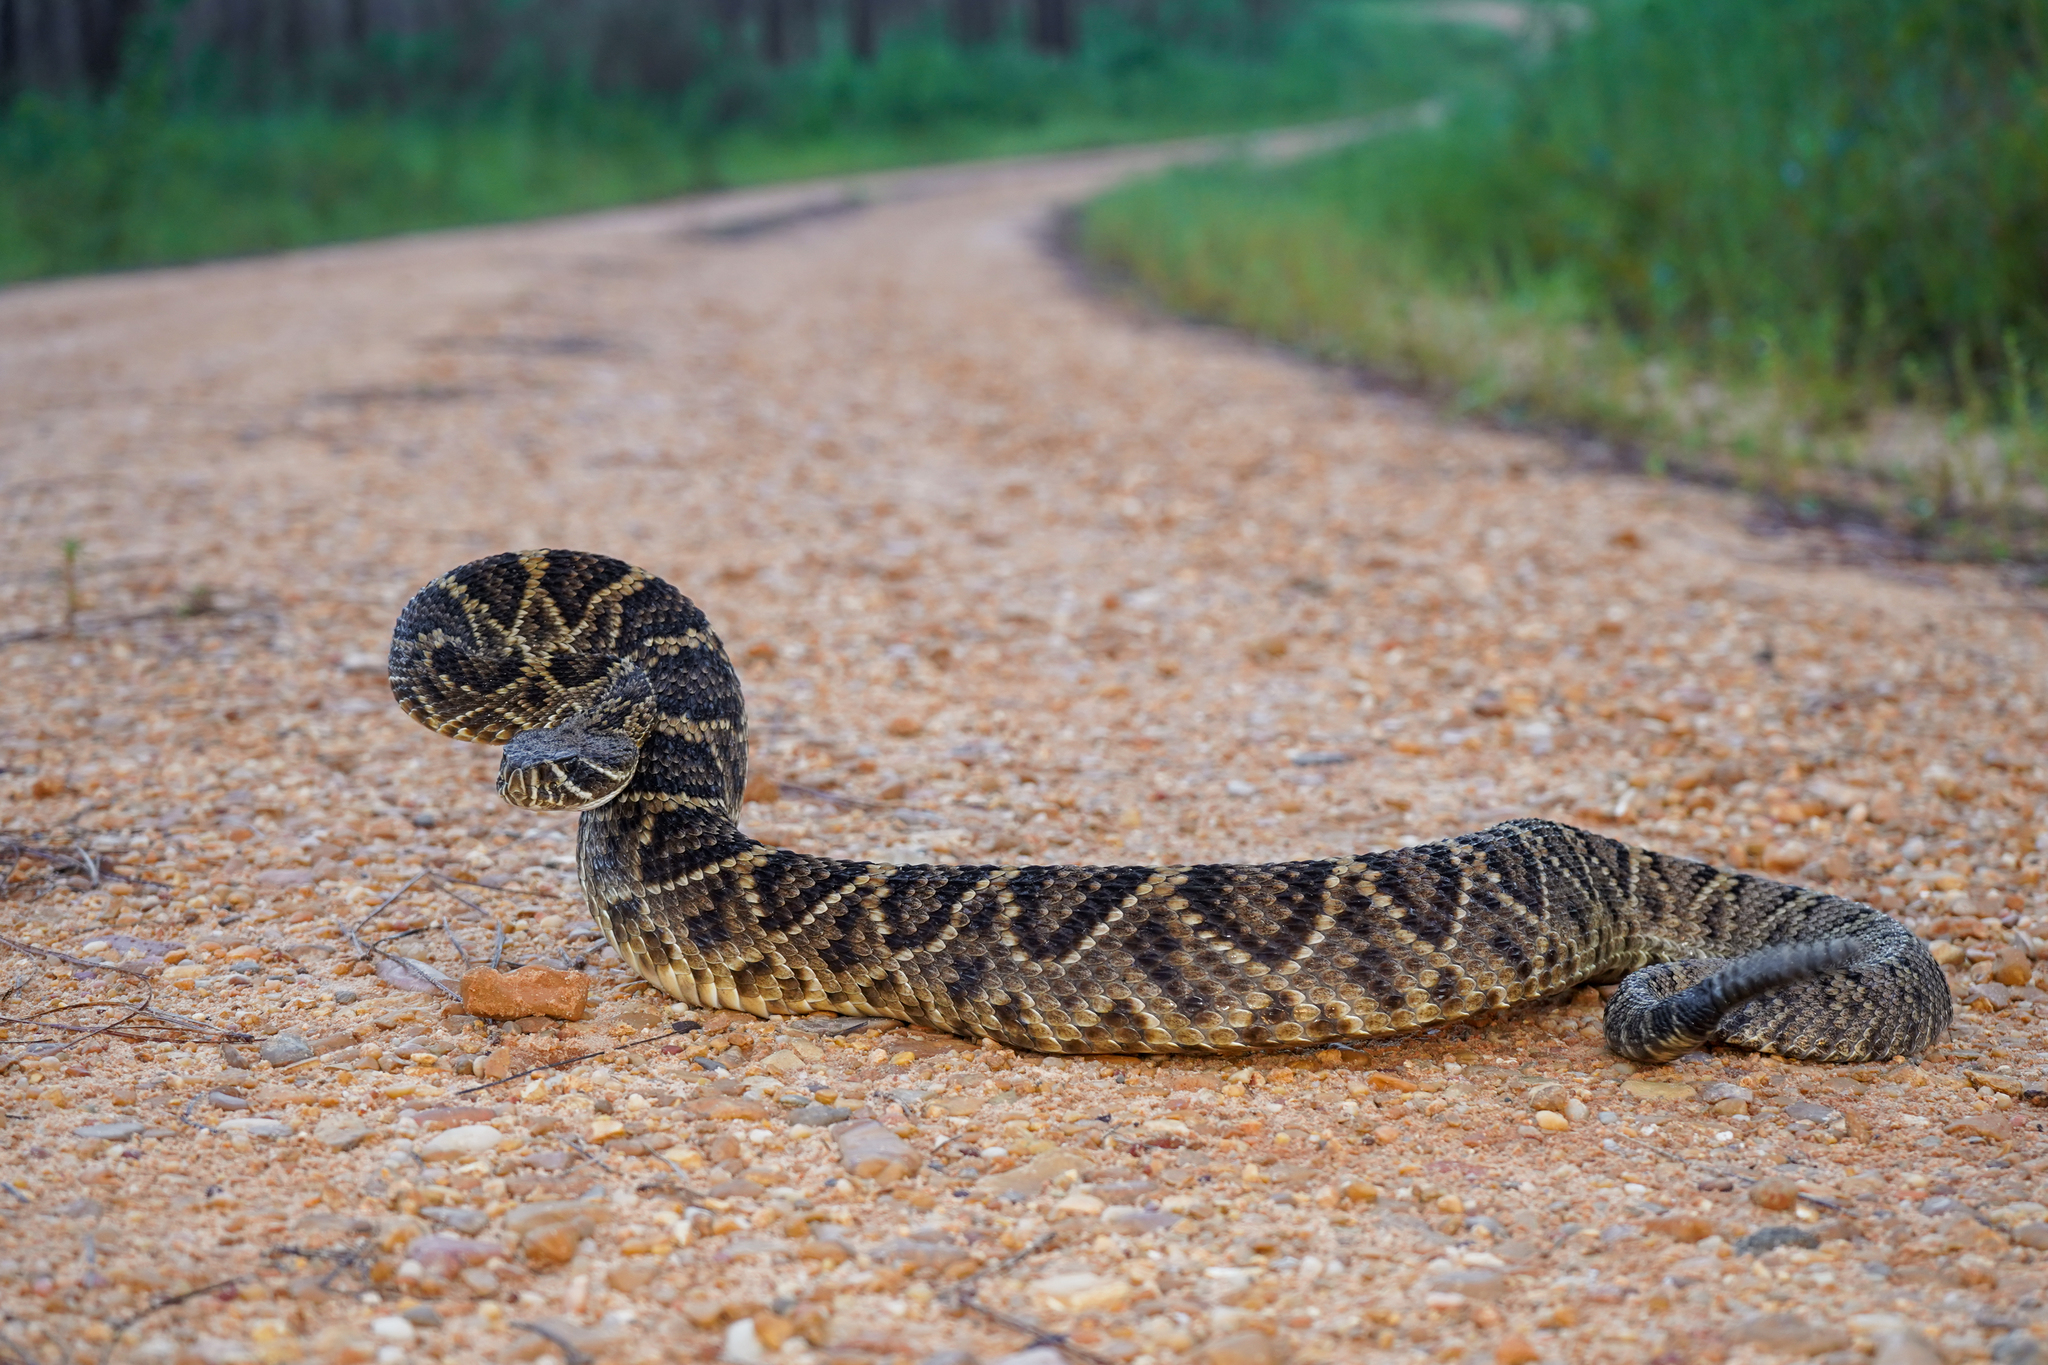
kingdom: Animalia
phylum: Chordata
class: Squamata
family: Viperidae
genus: Crotalus
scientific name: Crotalus adamanteus
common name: Eastern diamondback rattlesnake
